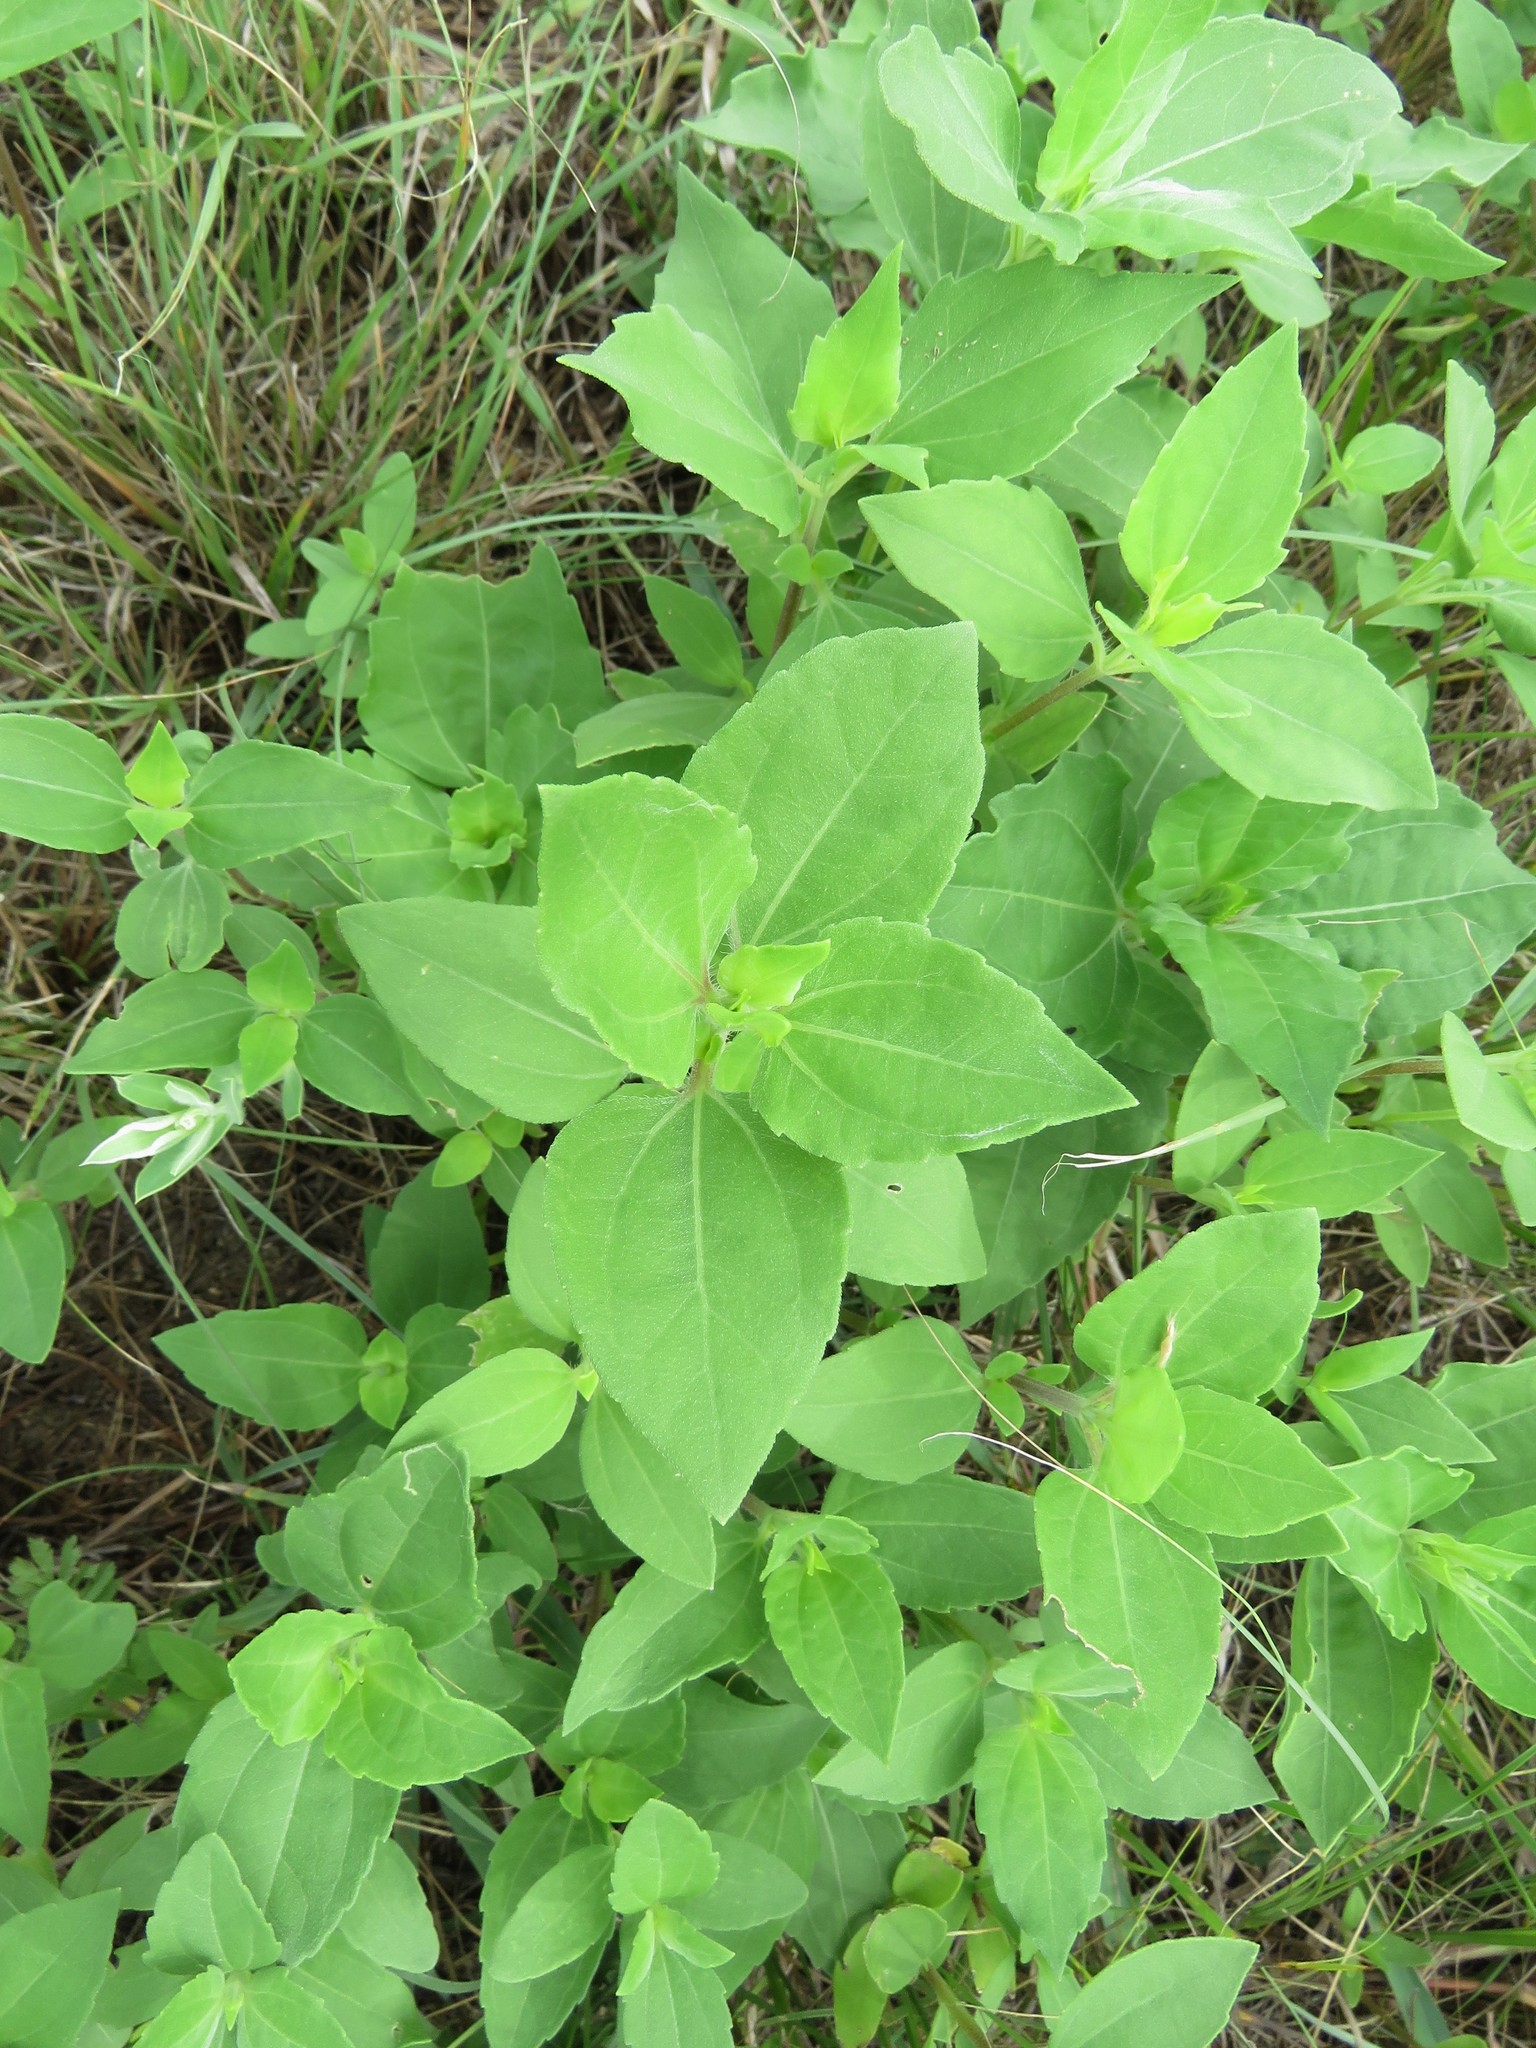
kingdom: Plantae
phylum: Tracheophyta
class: Magnoliopsida
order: Asterales
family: Asteraceae
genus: Iva
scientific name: Iva annua
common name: Marsh-elder
